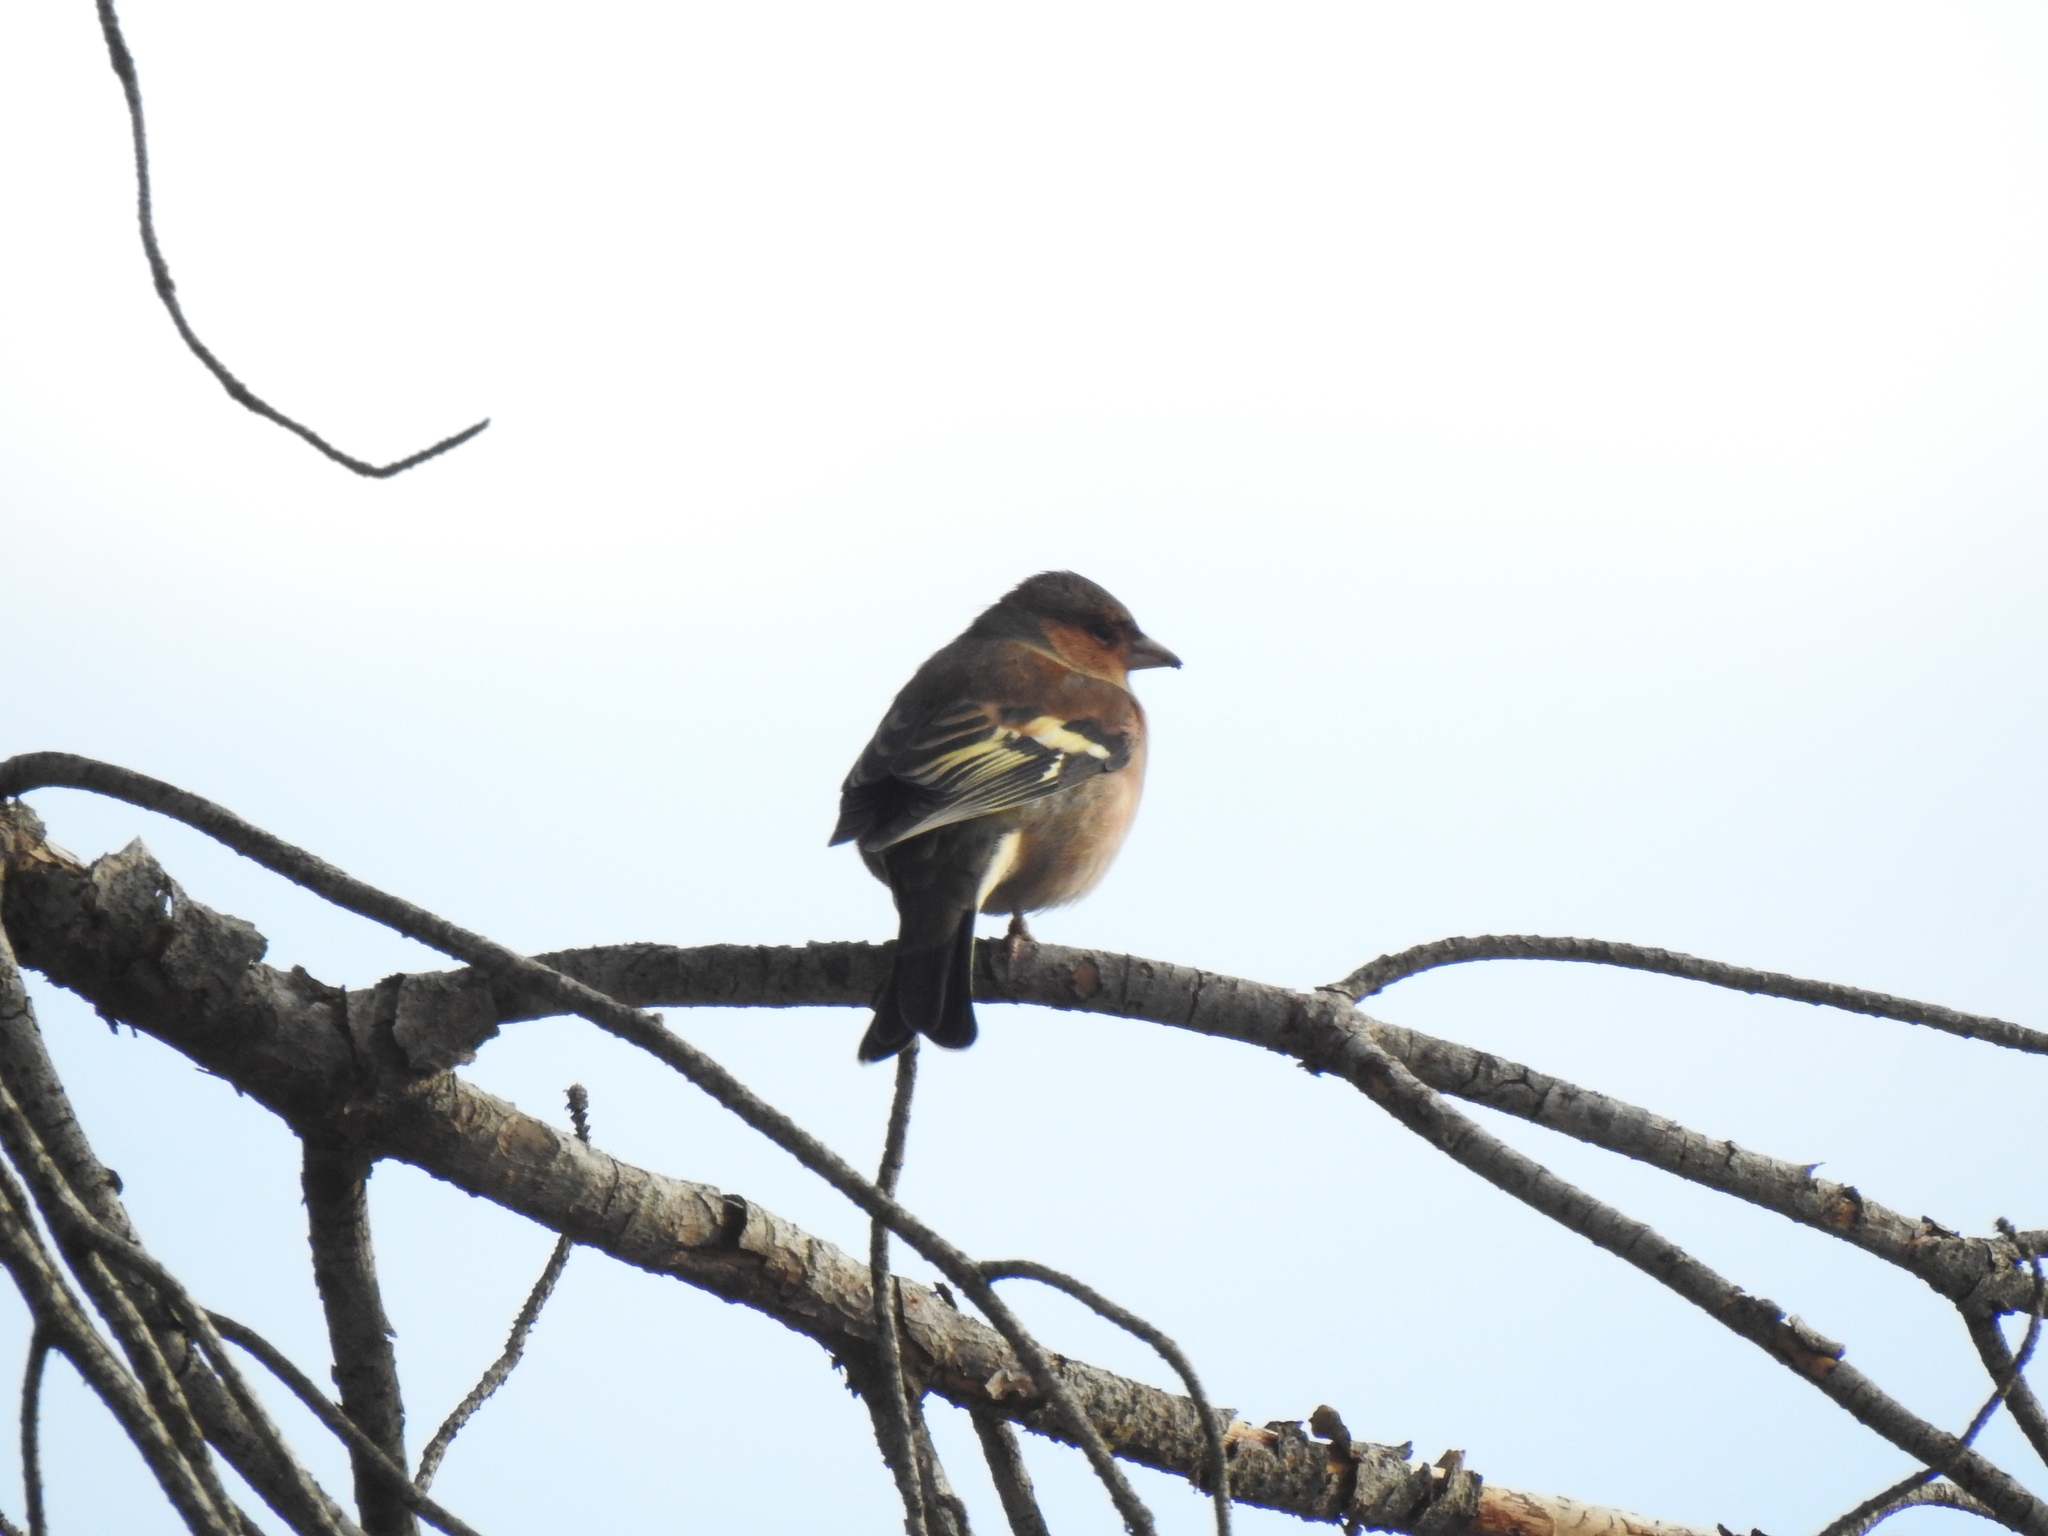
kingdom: Animalia
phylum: Chordata
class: Aves
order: Passeriformes
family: Fringillidae
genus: Fringilla
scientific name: Fringilla coelebs
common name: Common chaffinch
